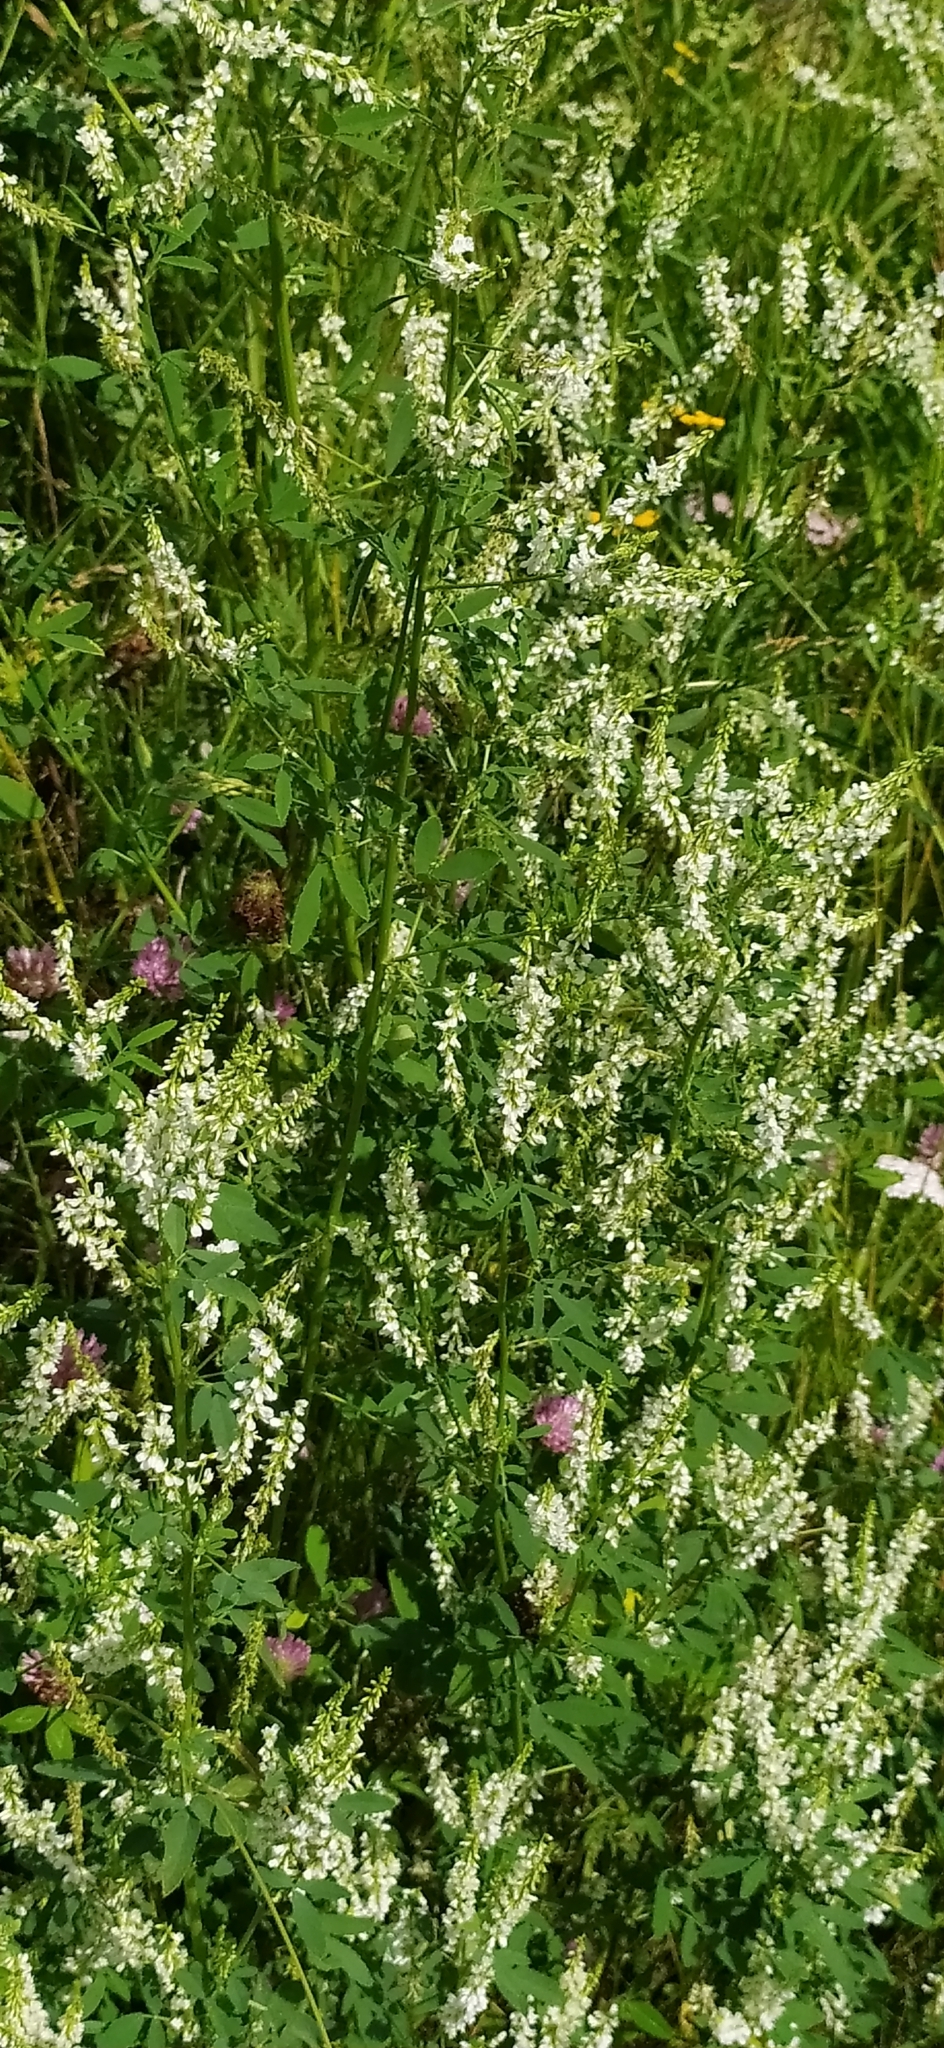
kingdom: Plantae
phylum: Tracheophyta
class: Magnoliopsida
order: Fabales
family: Fabaceae
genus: Melilotus
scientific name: Melilotus albus
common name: White melilot
